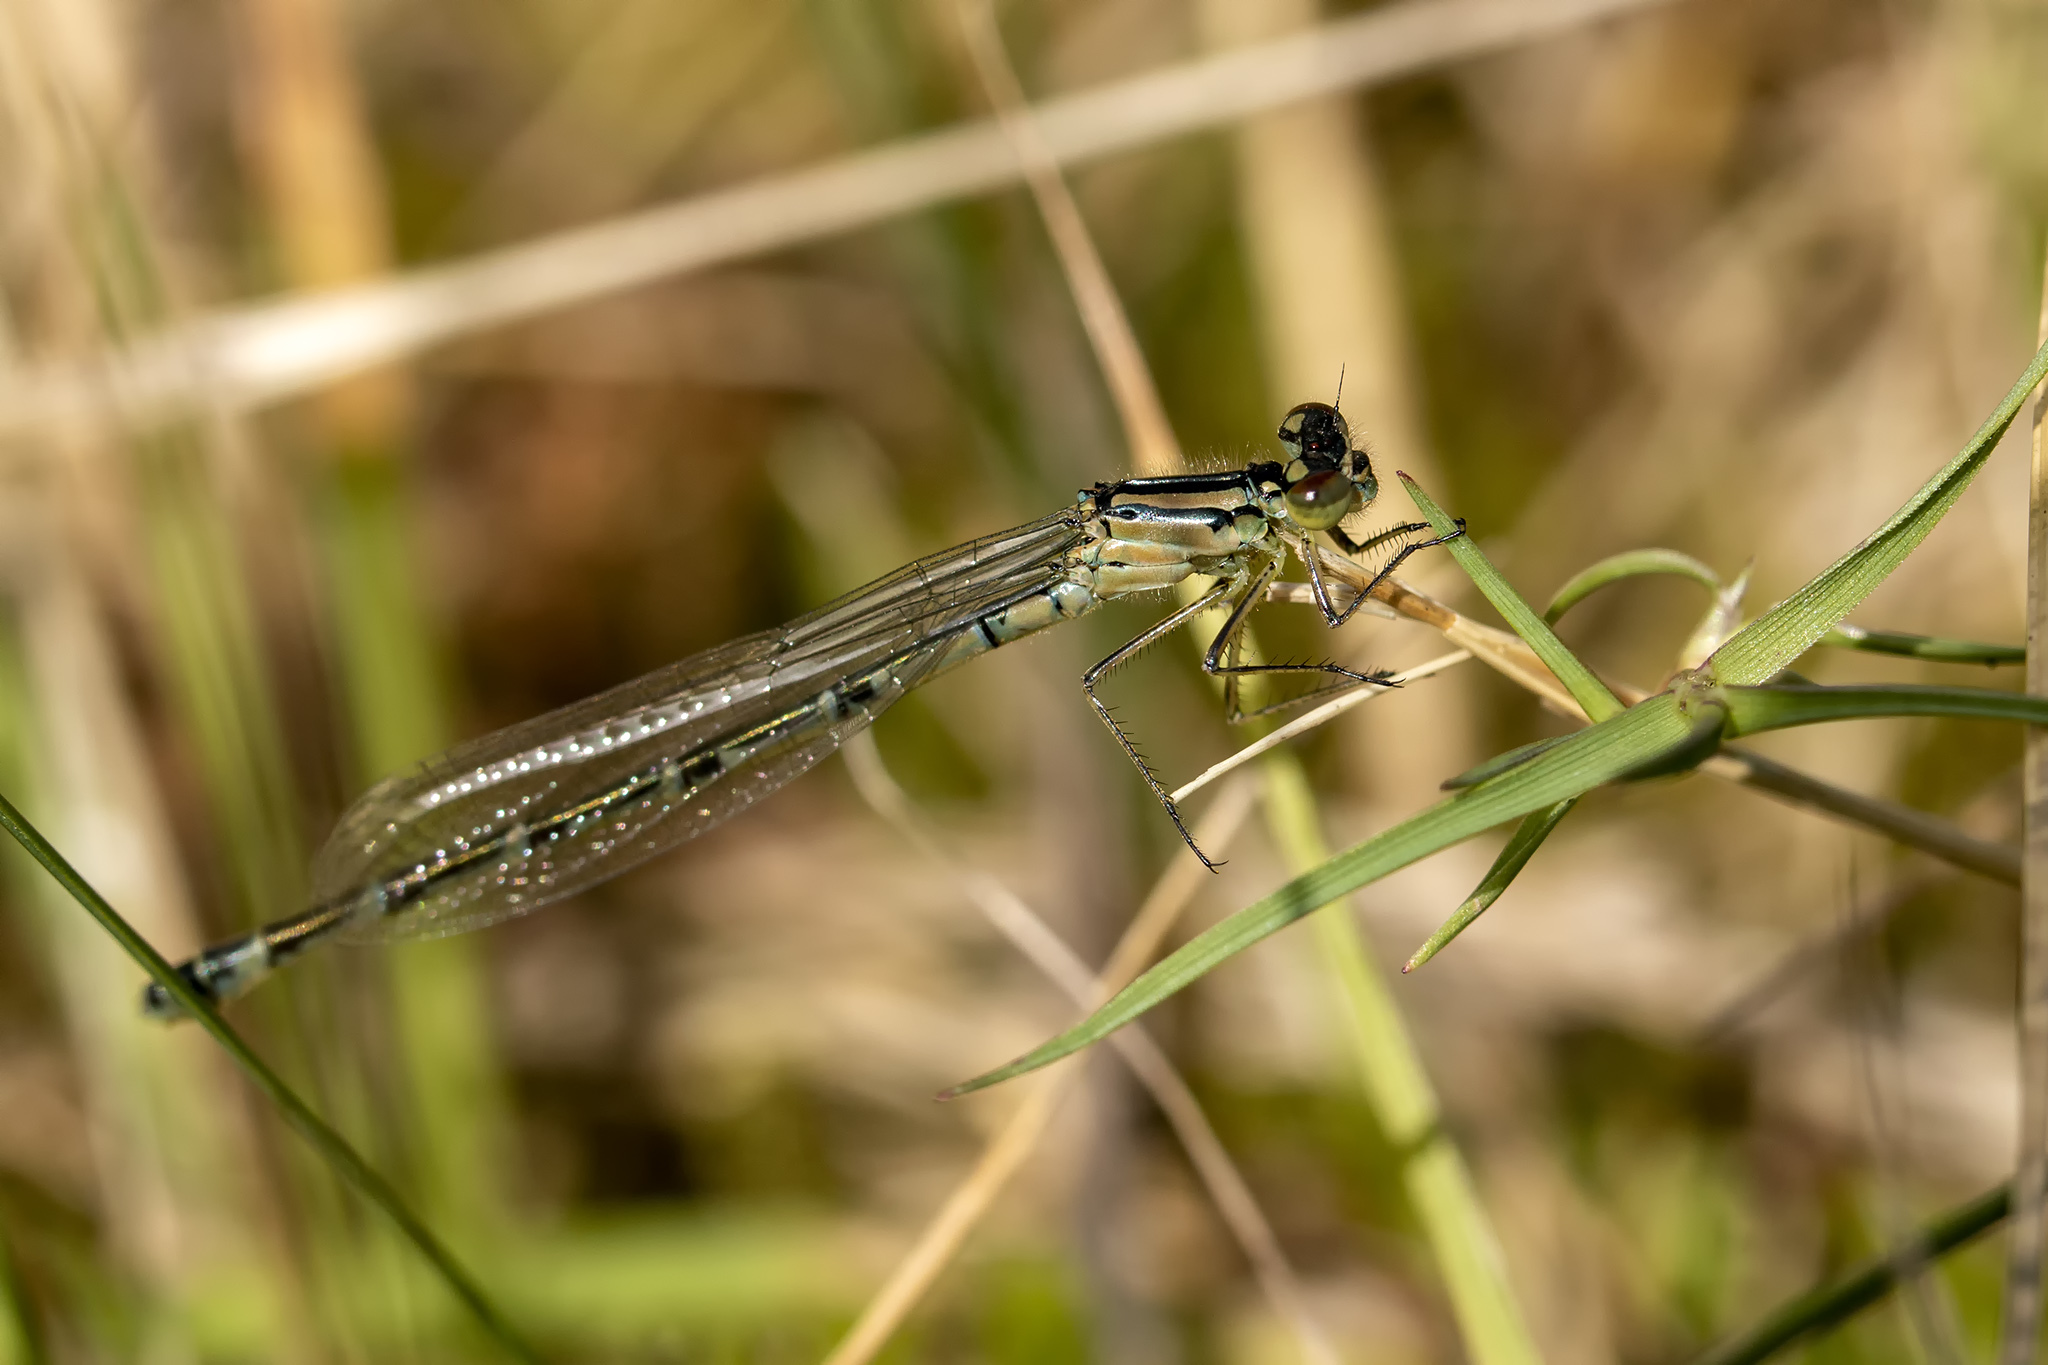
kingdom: Animalia
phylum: Arthropoda
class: Insecta
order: Odonata
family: Coenagrionidae
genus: Enallagma
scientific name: Enallagma cyathigerum
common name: Common blue damselfly
